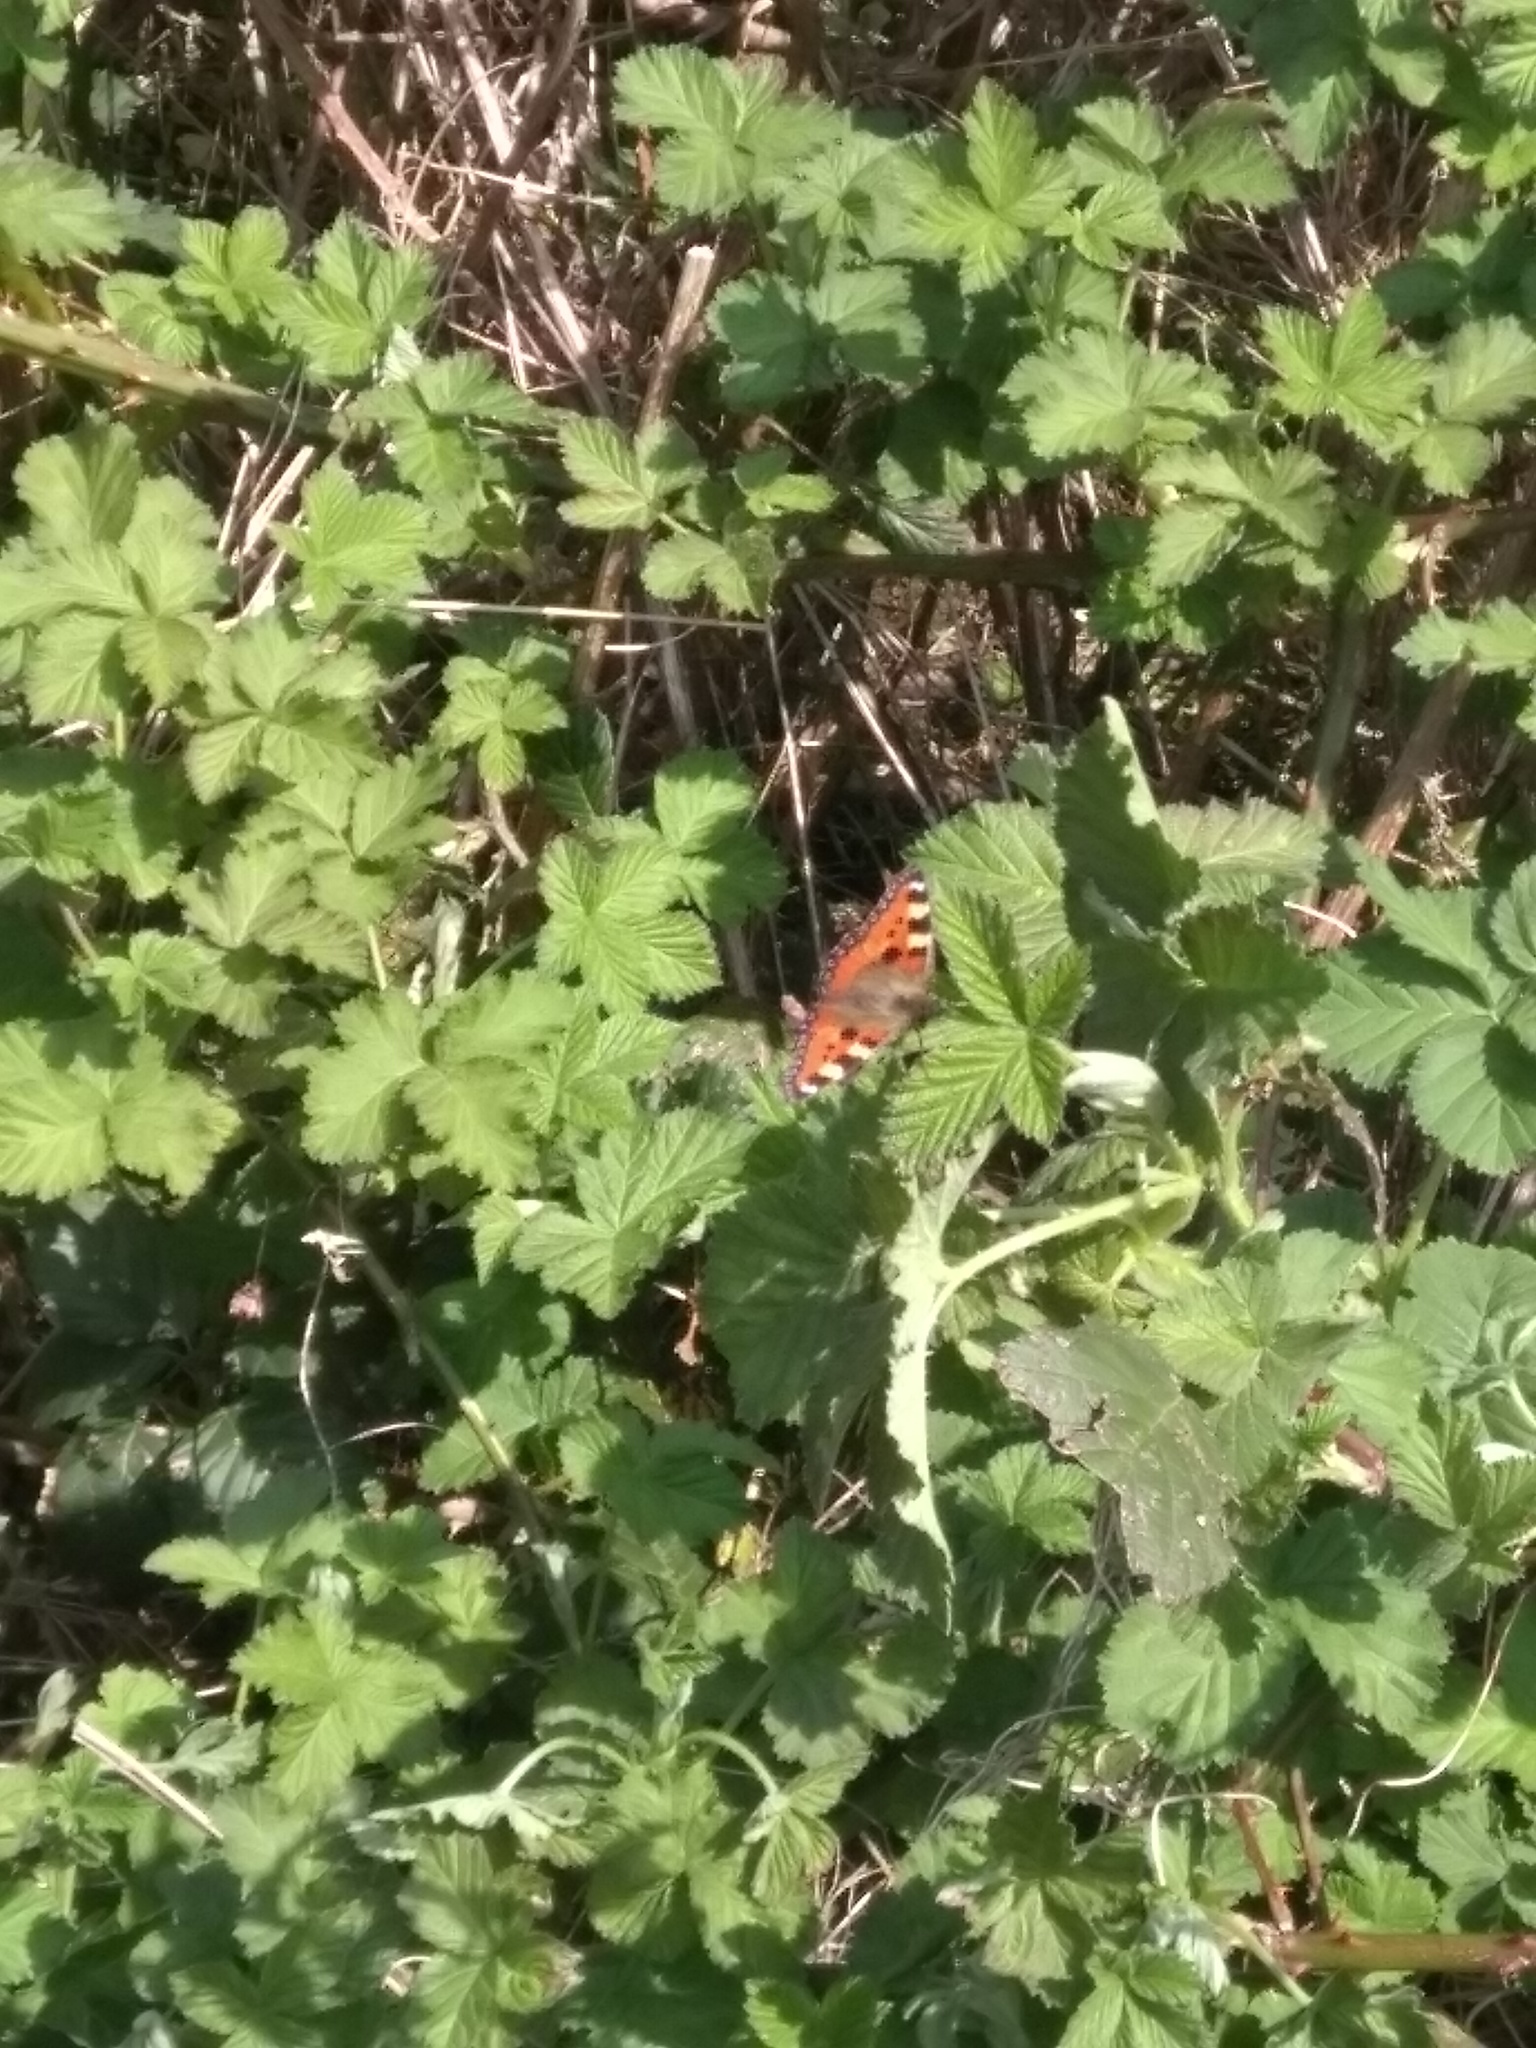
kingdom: Animalia
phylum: Arthropoda
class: Insecta
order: Lepidoptera
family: Nymphalidae
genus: Aglais
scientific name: Aglais urticae
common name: Small tortoiseshell
